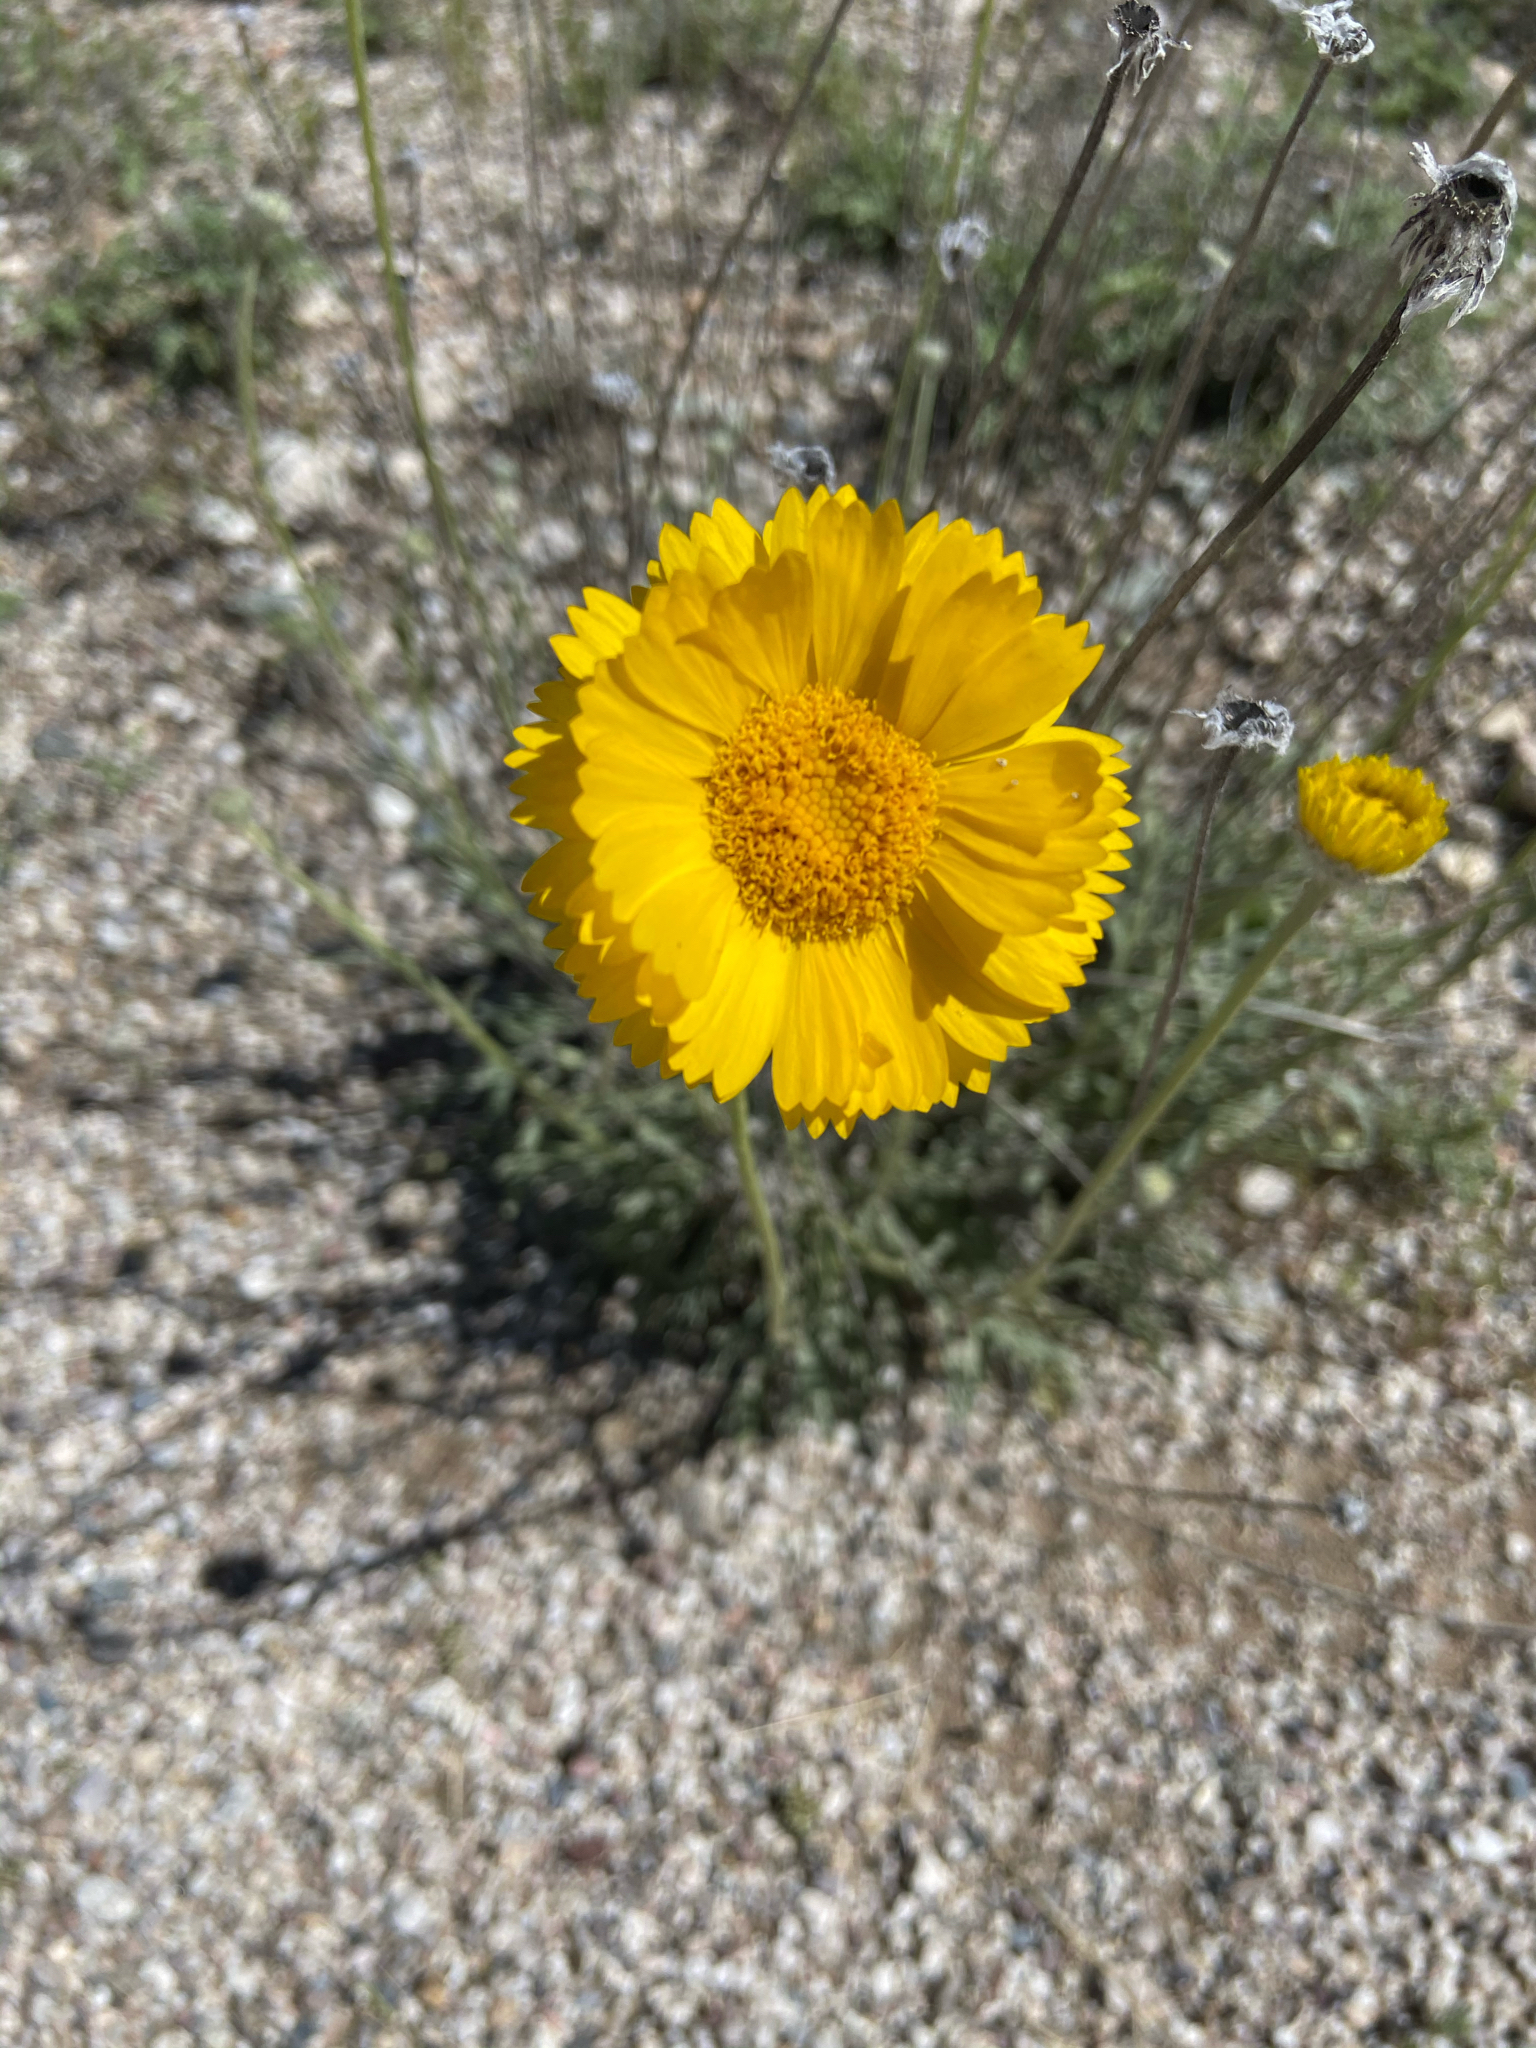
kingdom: Plantae
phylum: Tracheophyta
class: Magnoliopsida
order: Asterales
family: Asteraceae
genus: Baileya
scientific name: Baileya multiradiata
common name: Desert-marigold
